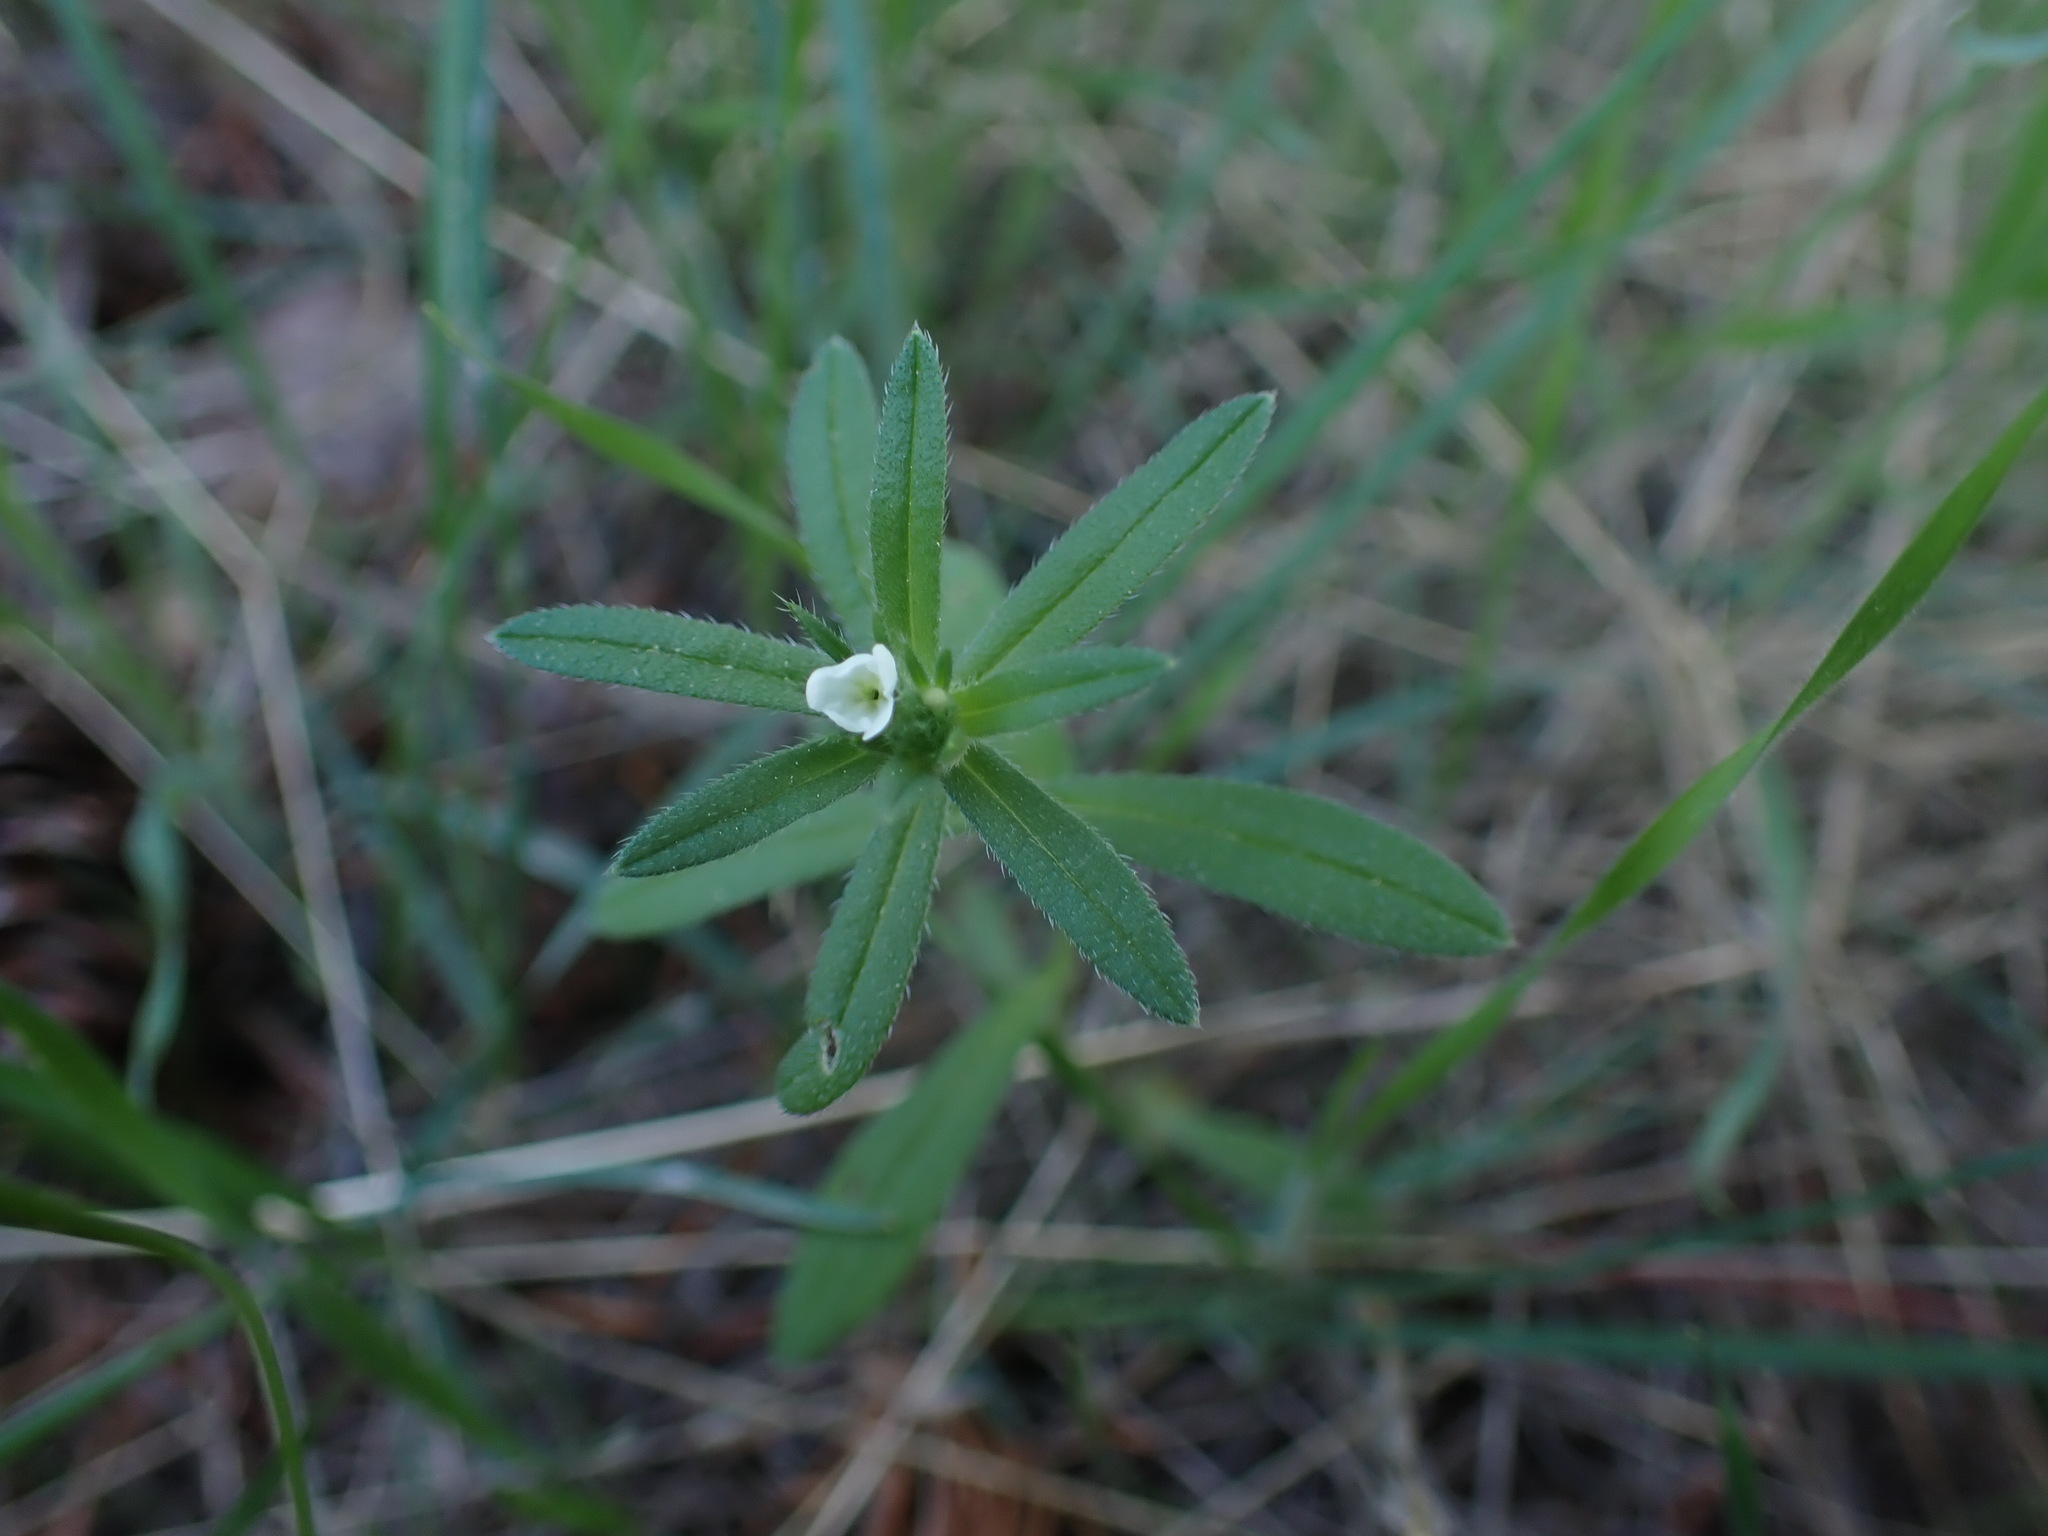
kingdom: Plantae
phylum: Tracheophyta
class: Magnoliopsida
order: Boraginales
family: Boraginaceae
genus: Buglossoides
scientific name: Buglossoides arvensis
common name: Corn gromwell
